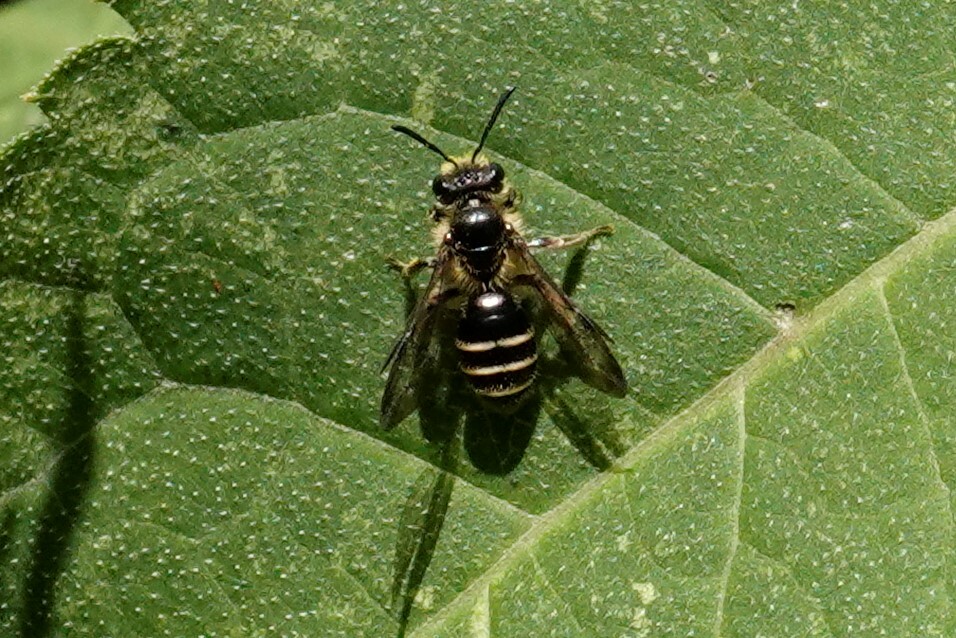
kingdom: Animalia
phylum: Arthropoda
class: Insecta
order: Hymenoptera
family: Andrenidae
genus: Andrena
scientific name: Andrena nubecula
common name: Cloudy-winged mining bee
